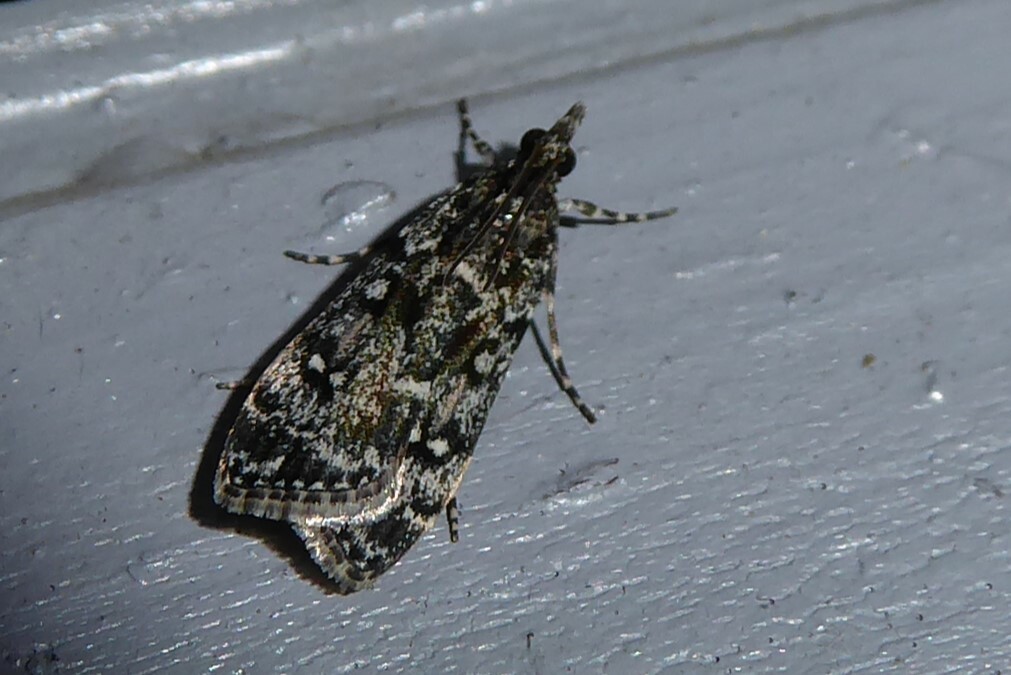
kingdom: Animalia
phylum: Arthropoda
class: Insecta
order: Lepidoptera
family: Crambidae
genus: Eudonia
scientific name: Eudonia philerga
